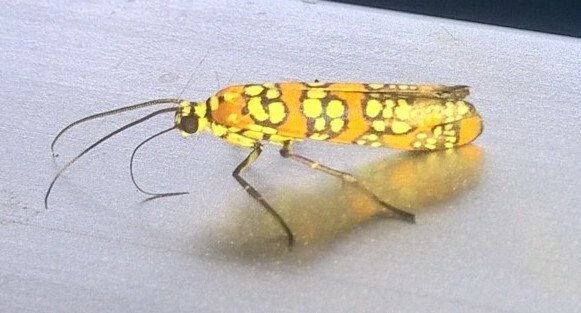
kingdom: Animalia
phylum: Arthropoda
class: Insecta
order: Lepidoptera
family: Attevidae
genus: Atteva
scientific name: Atteva punctella
